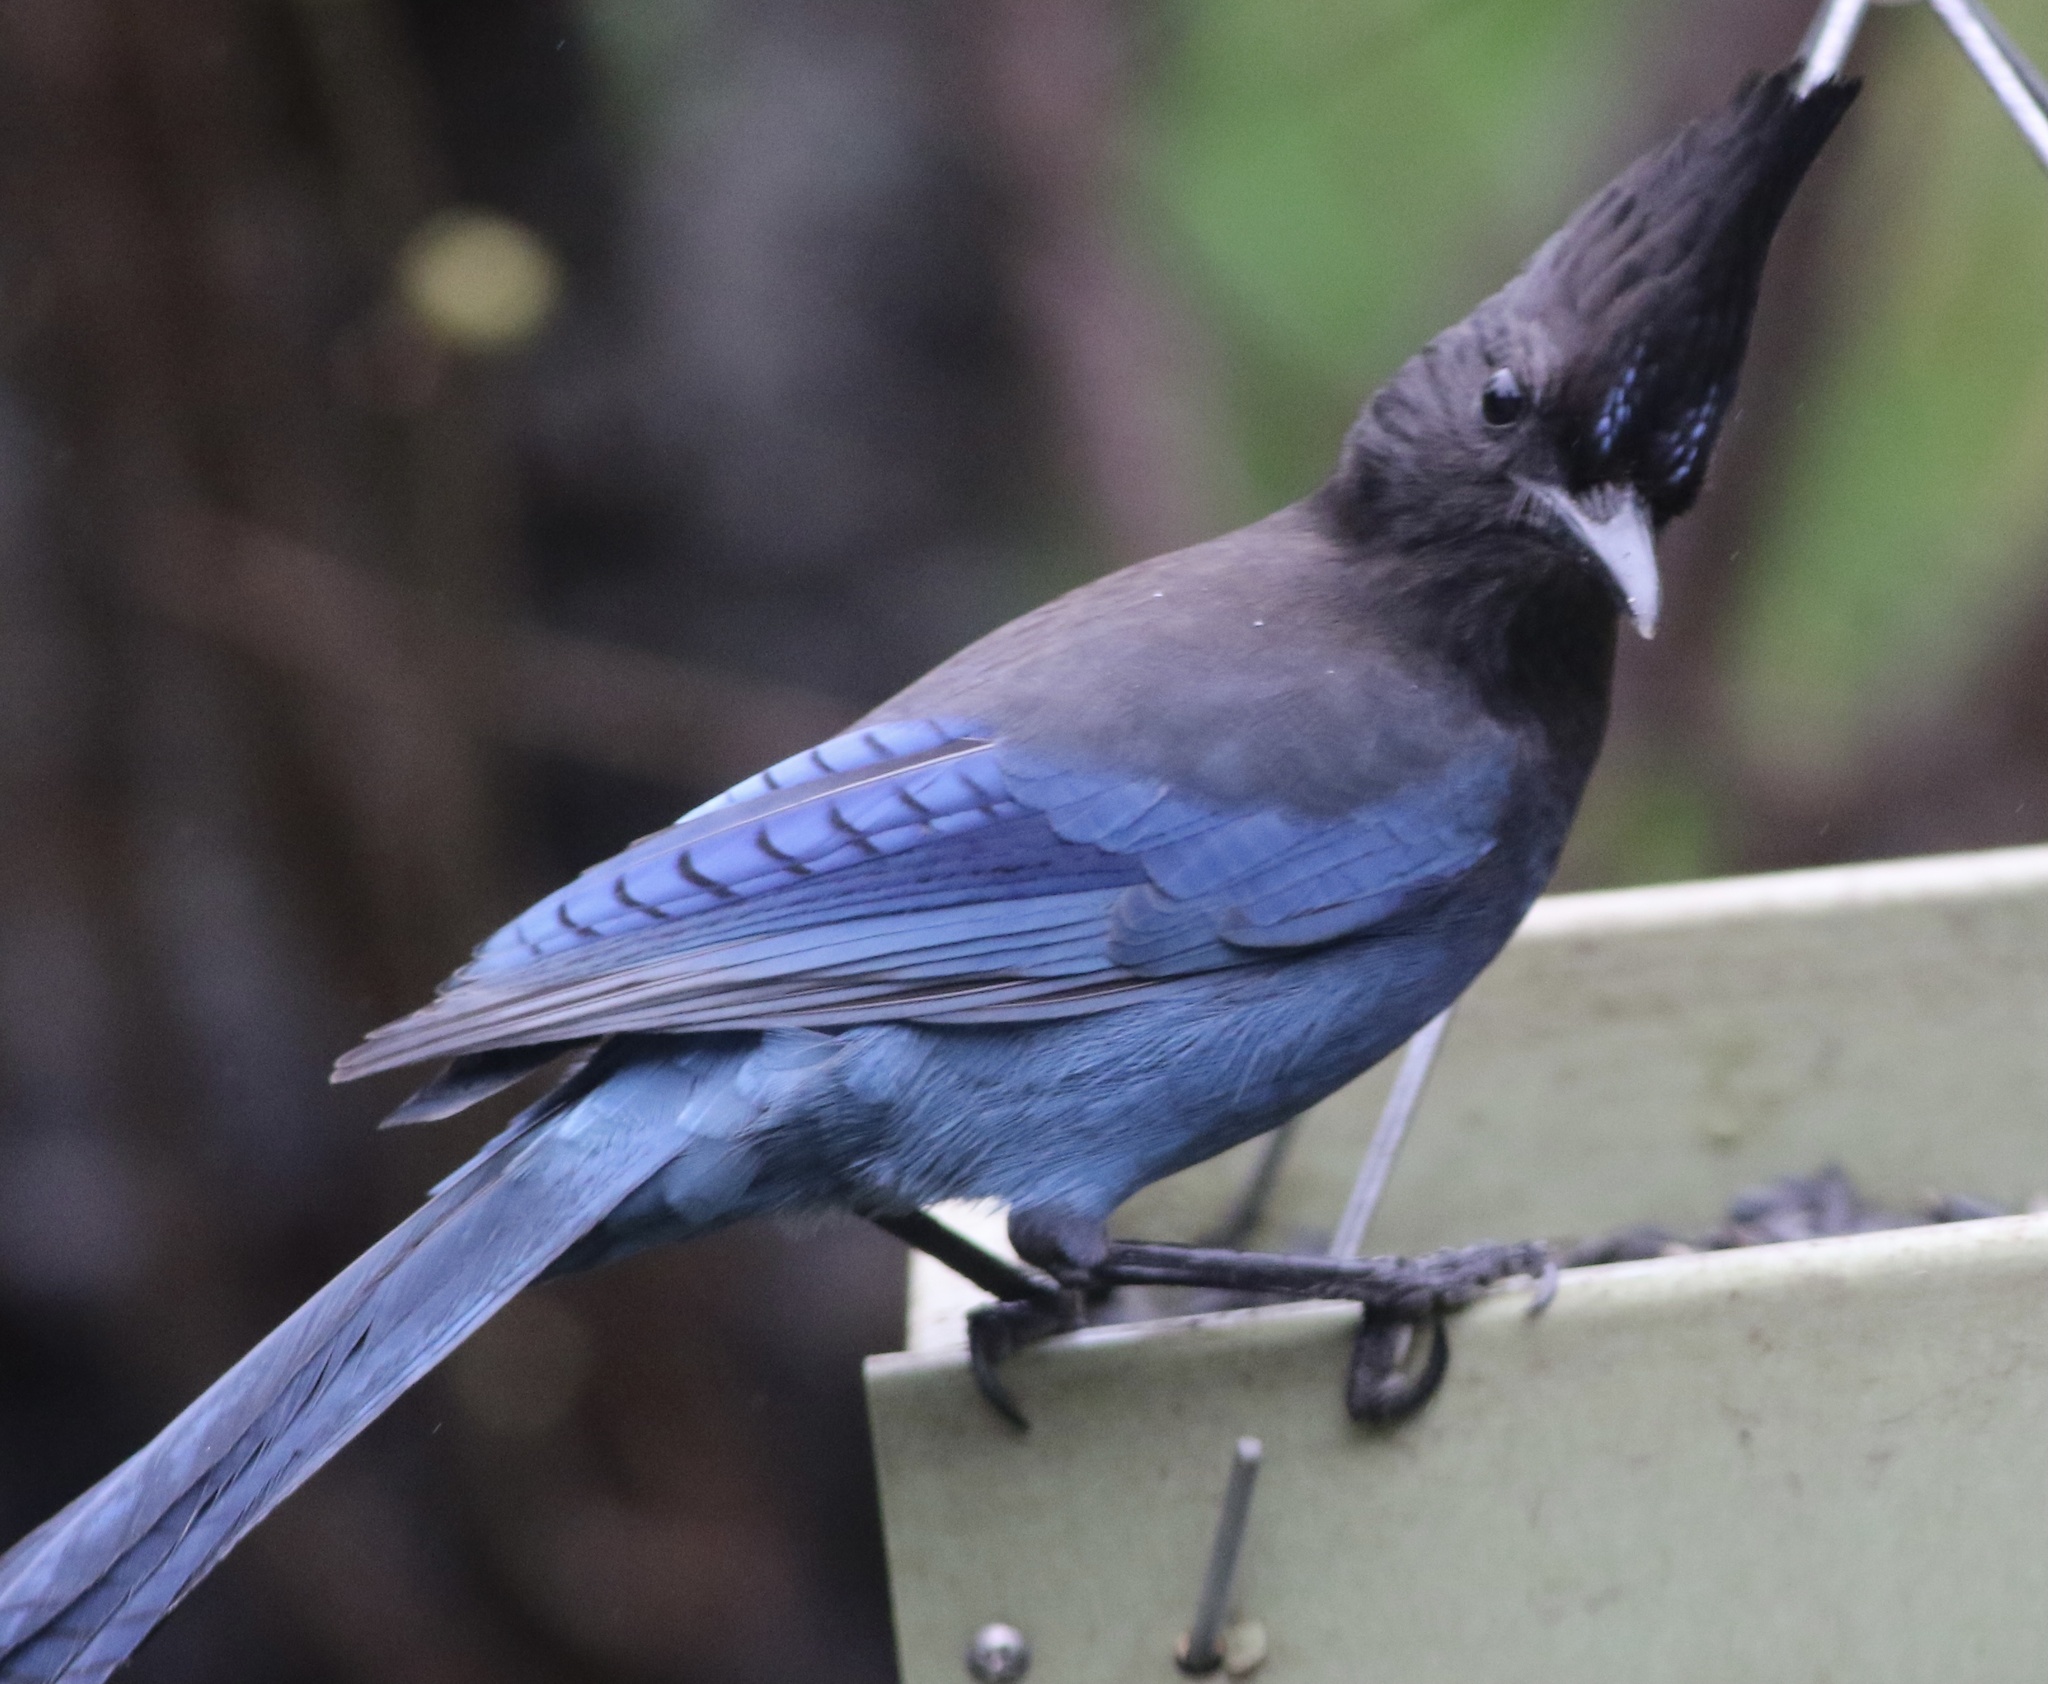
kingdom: Animalia
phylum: Chordata
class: Aves
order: Passeriformes
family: Corvidae
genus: Cyanocitta
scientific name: Cyanocitta stelleri
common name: Steller's jay
